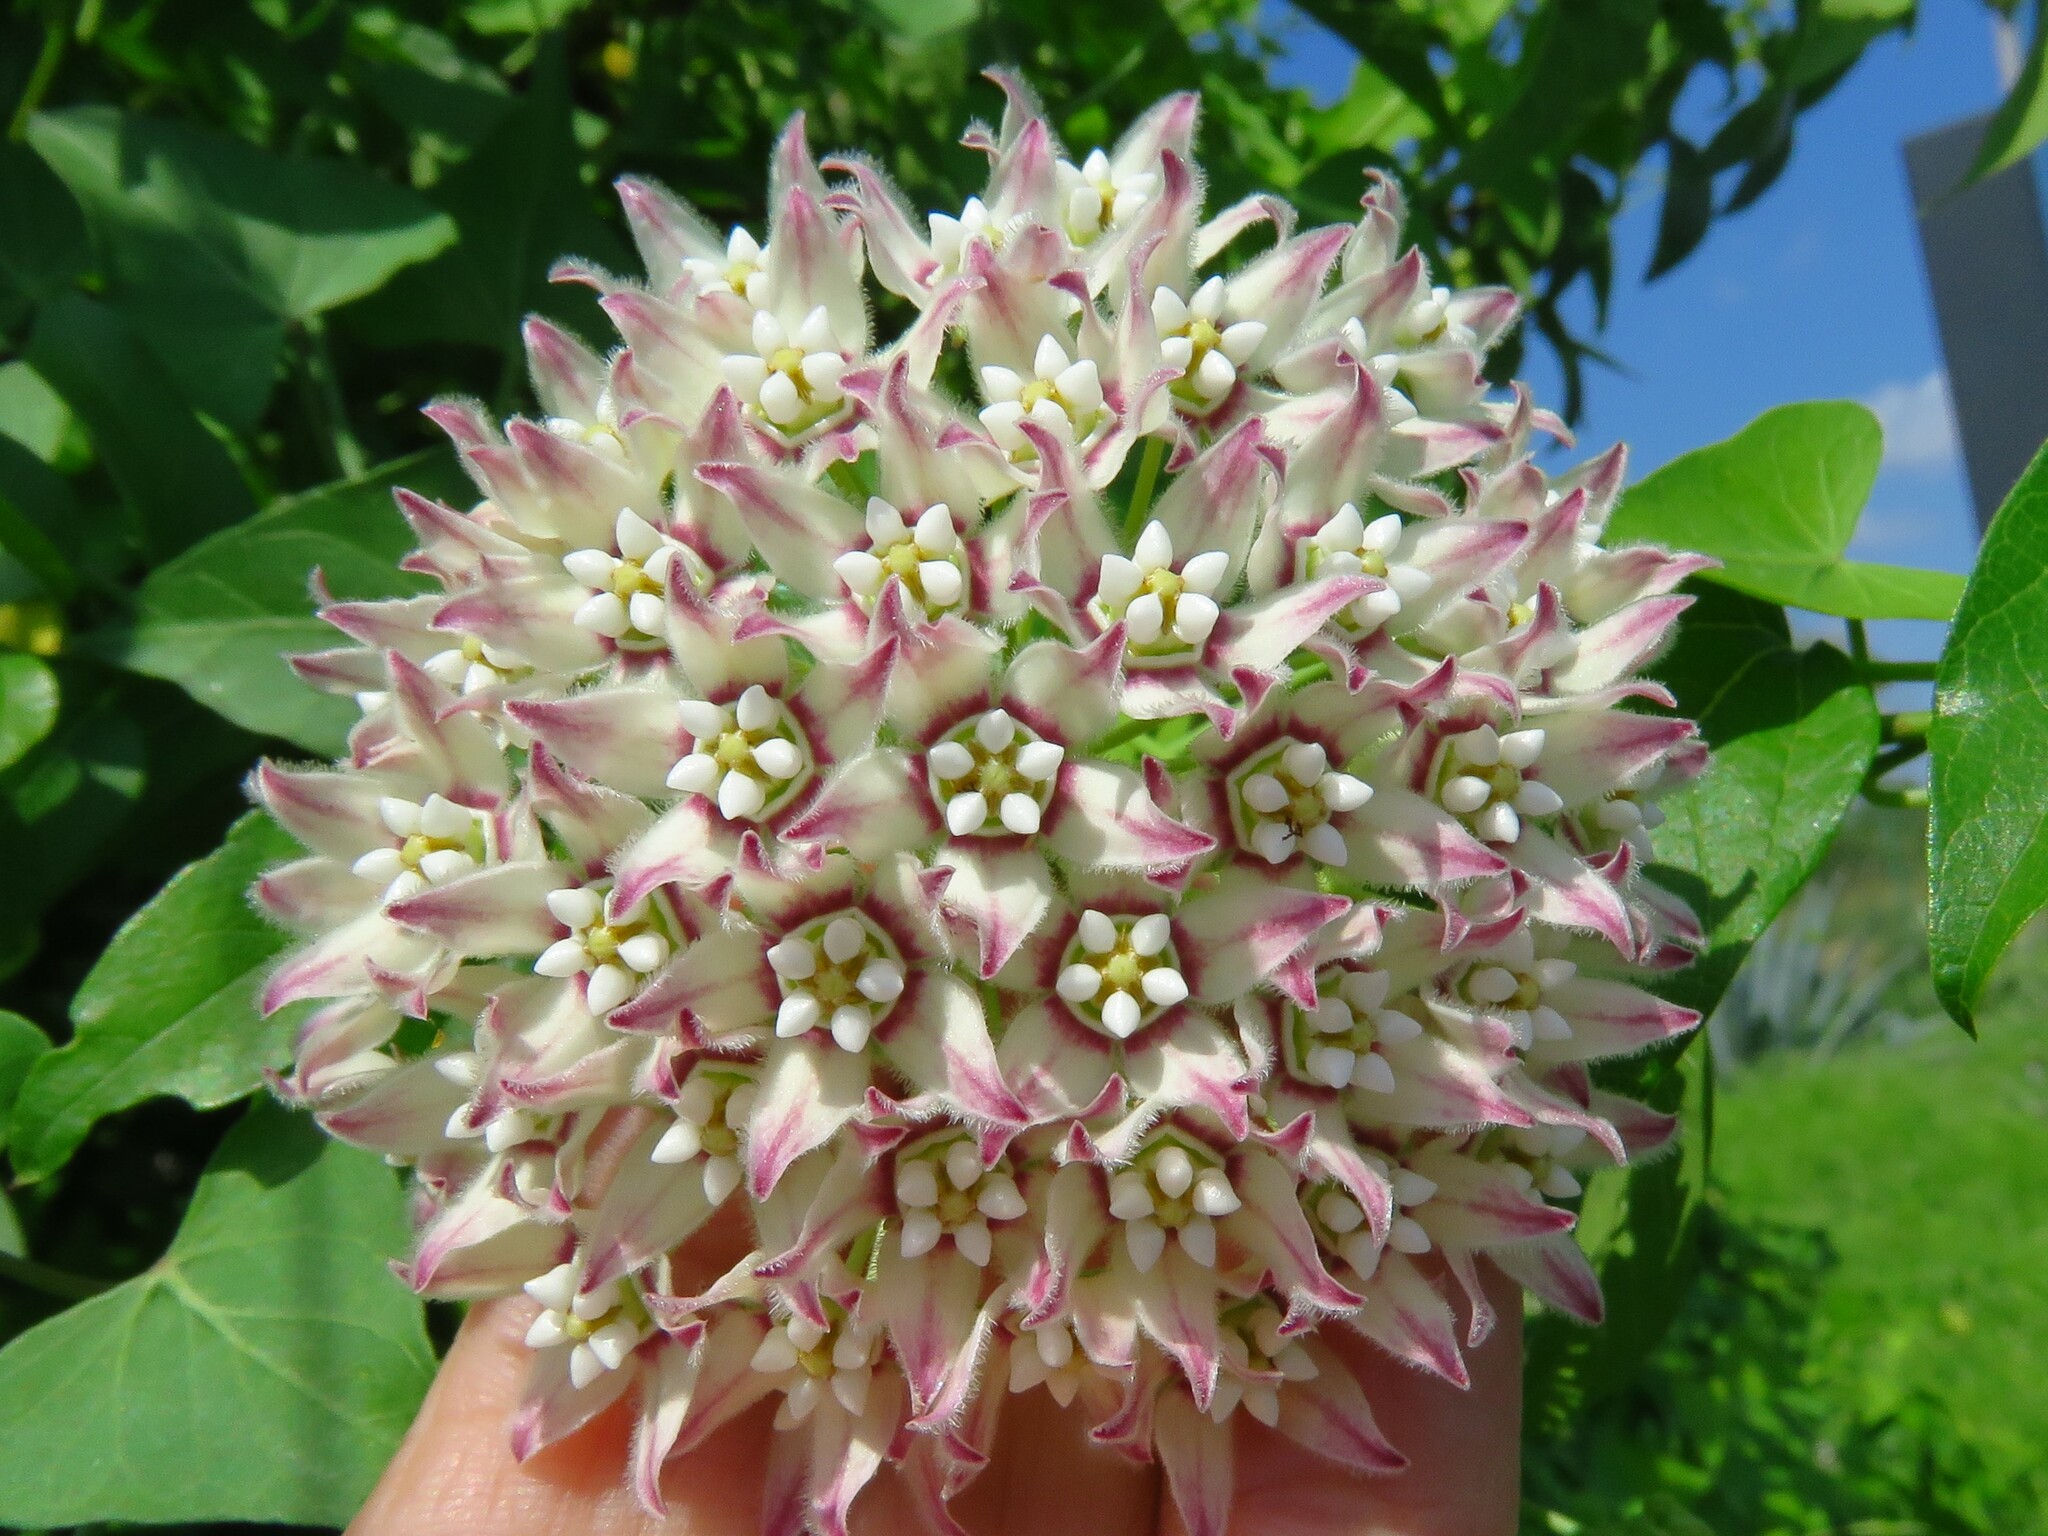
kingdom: Plantae
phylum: Tracheophyta
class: Magnoliopsida
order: Gentianales
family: Apocynaceae
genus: Funastrum
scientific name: Funastrum cynanchoides
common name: Climbing-milkweed
